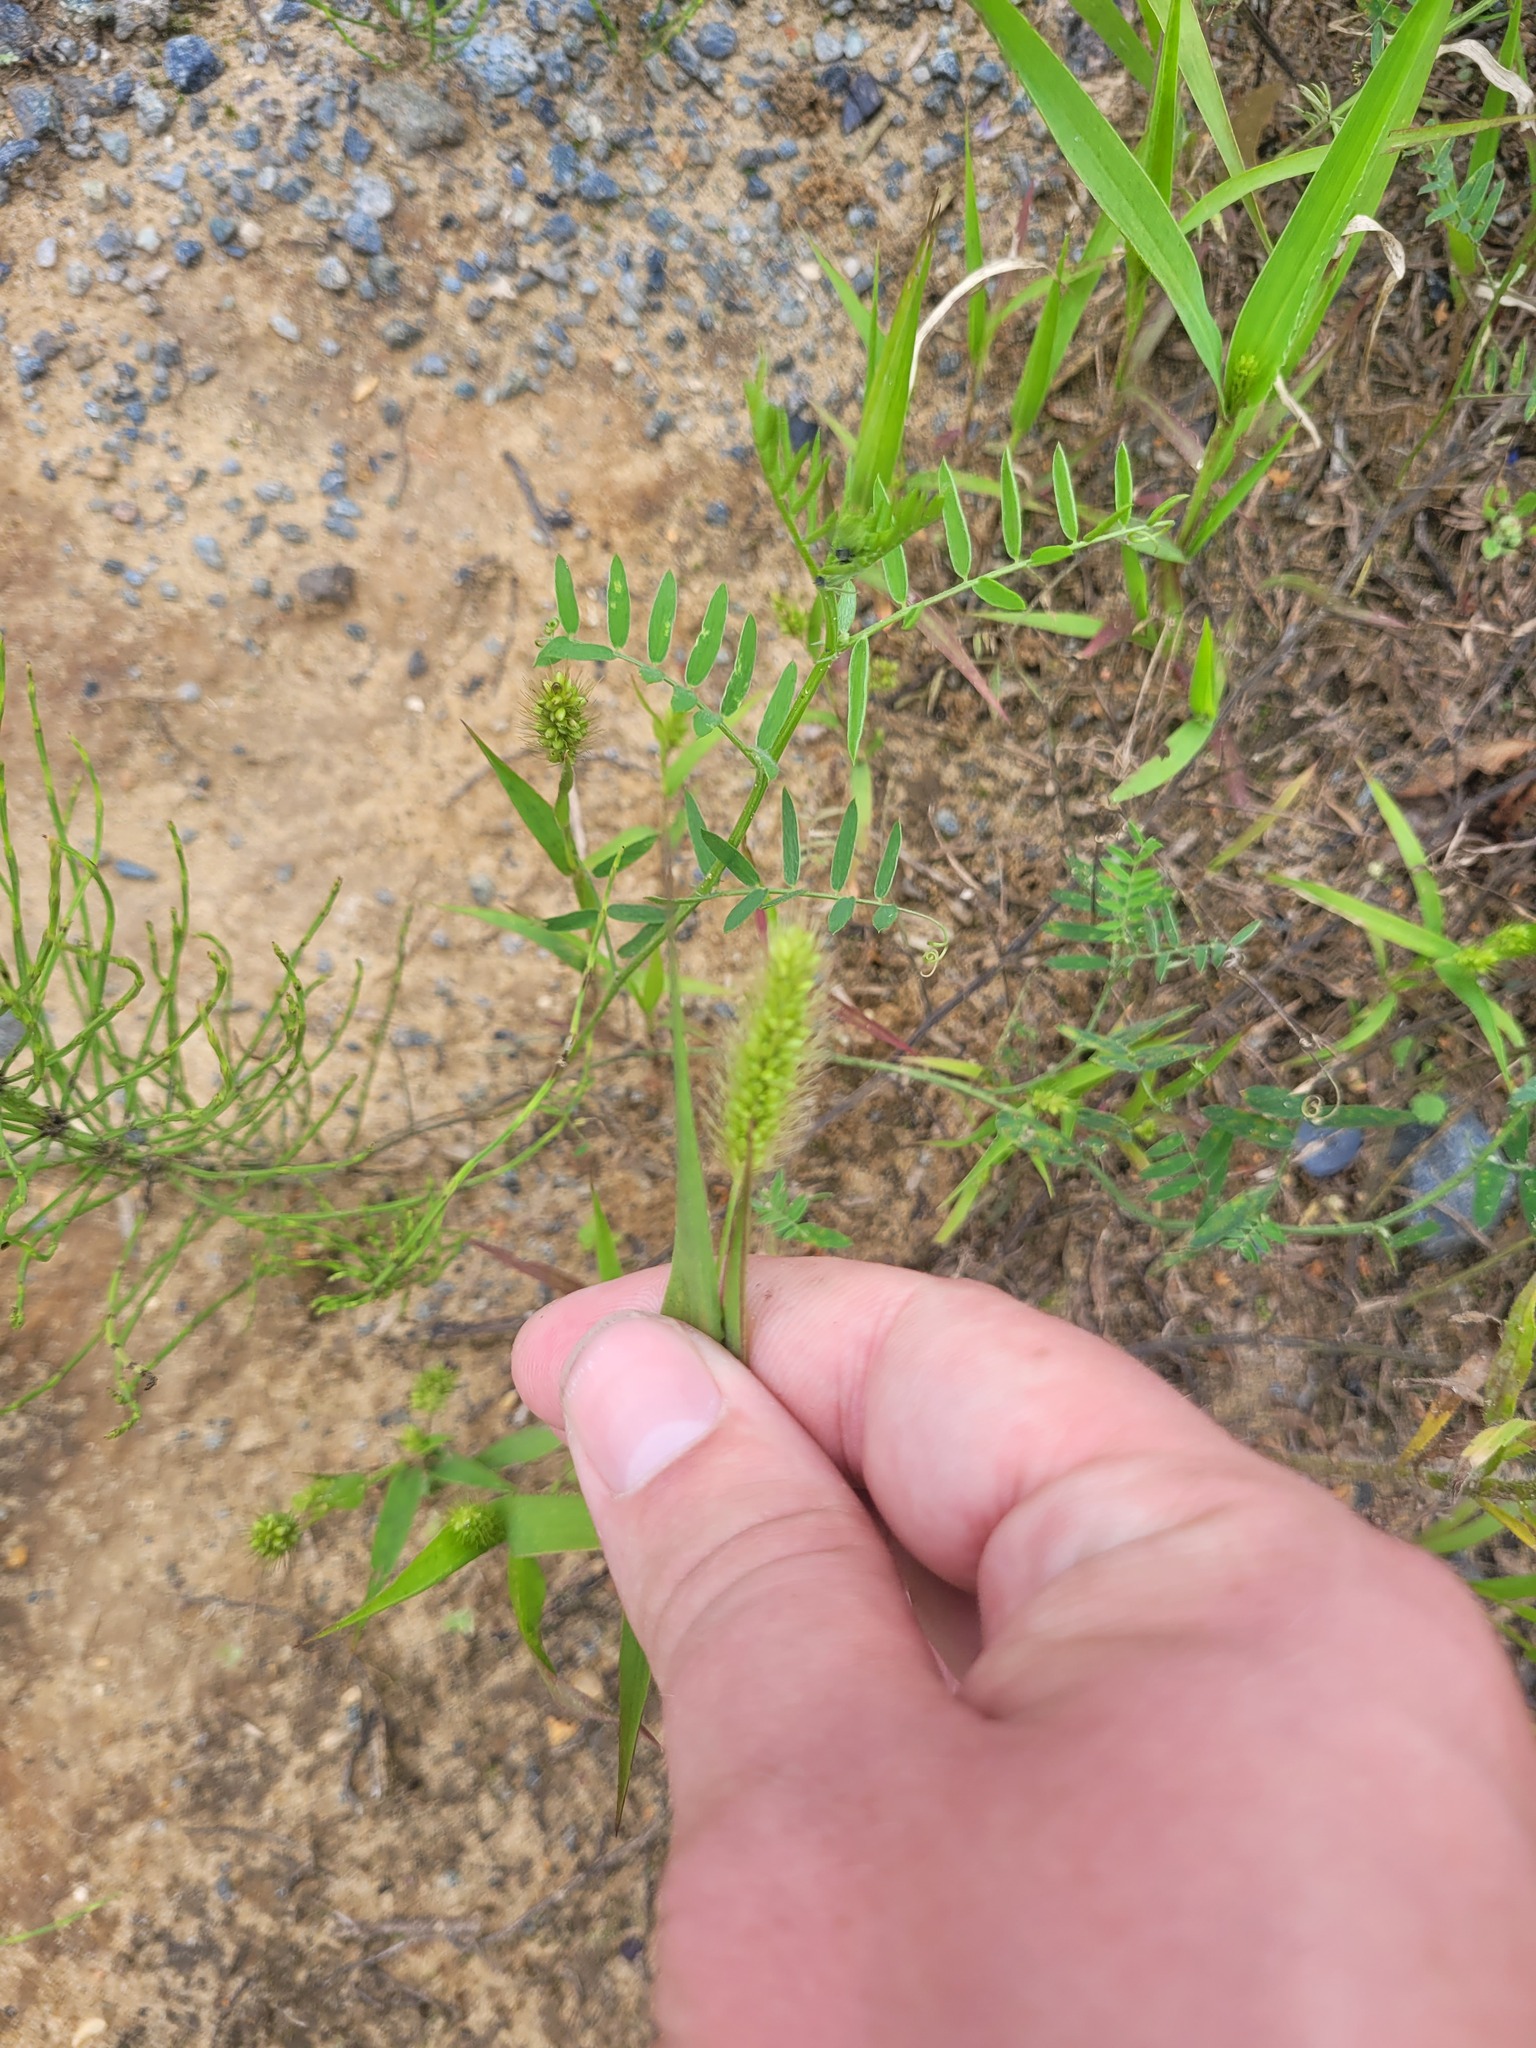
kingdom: Plantae
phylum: Tracheophyta
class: Liliopsida
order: Poales
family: Poaceae
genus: Setaria
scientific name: Setaria viridis
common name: Green bristlegrass
